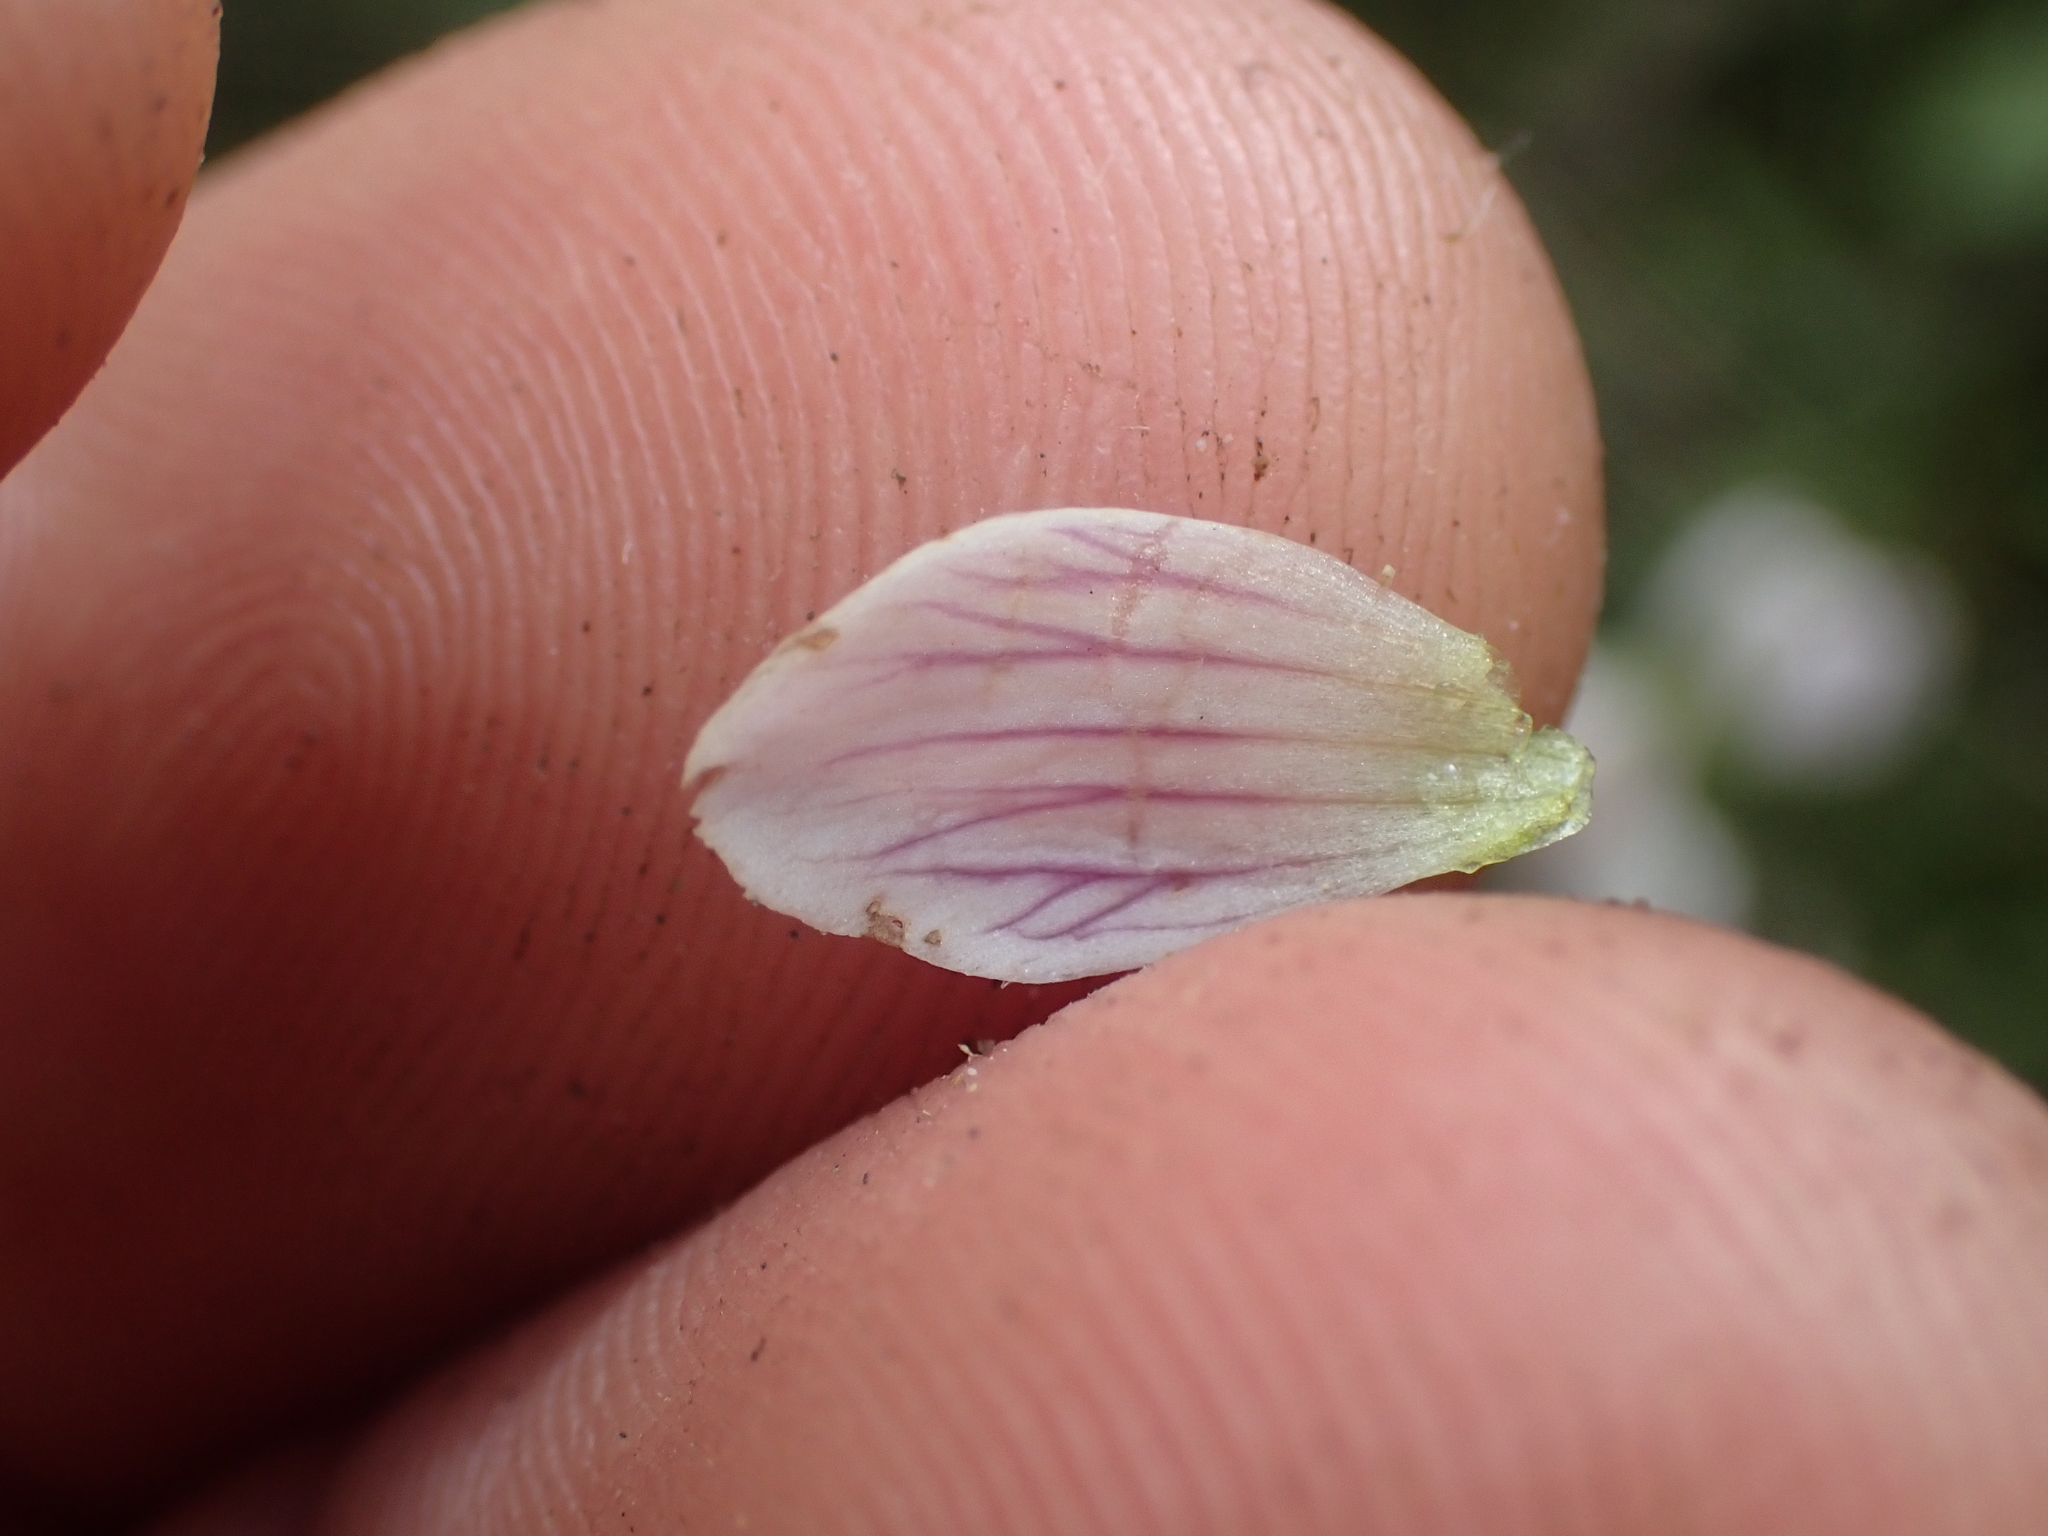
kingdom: Plantae
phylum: Tracheophyta
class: Magnoliopsida
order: Gentianales
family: Gentianaceae
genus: Gentianella
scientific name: Gentianella tenuifolia
